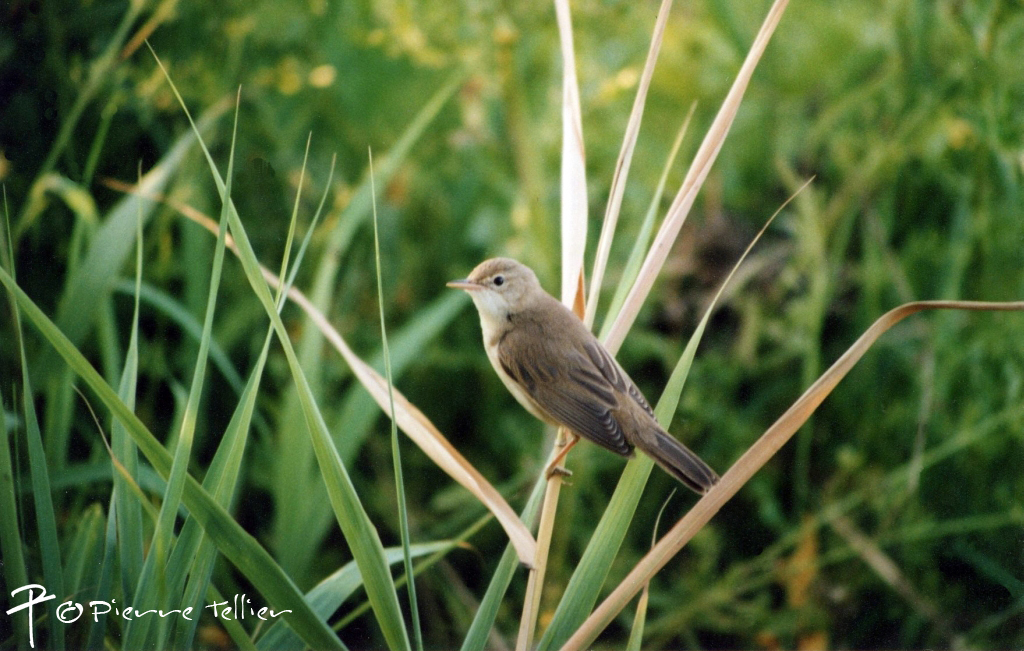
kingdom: Animalia
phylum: Chordata
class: Aves
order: Passeriformes
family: Acrocephalidae
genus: Acrocephalus
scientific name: Acrocephalus palustris
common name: Marsh warbler
